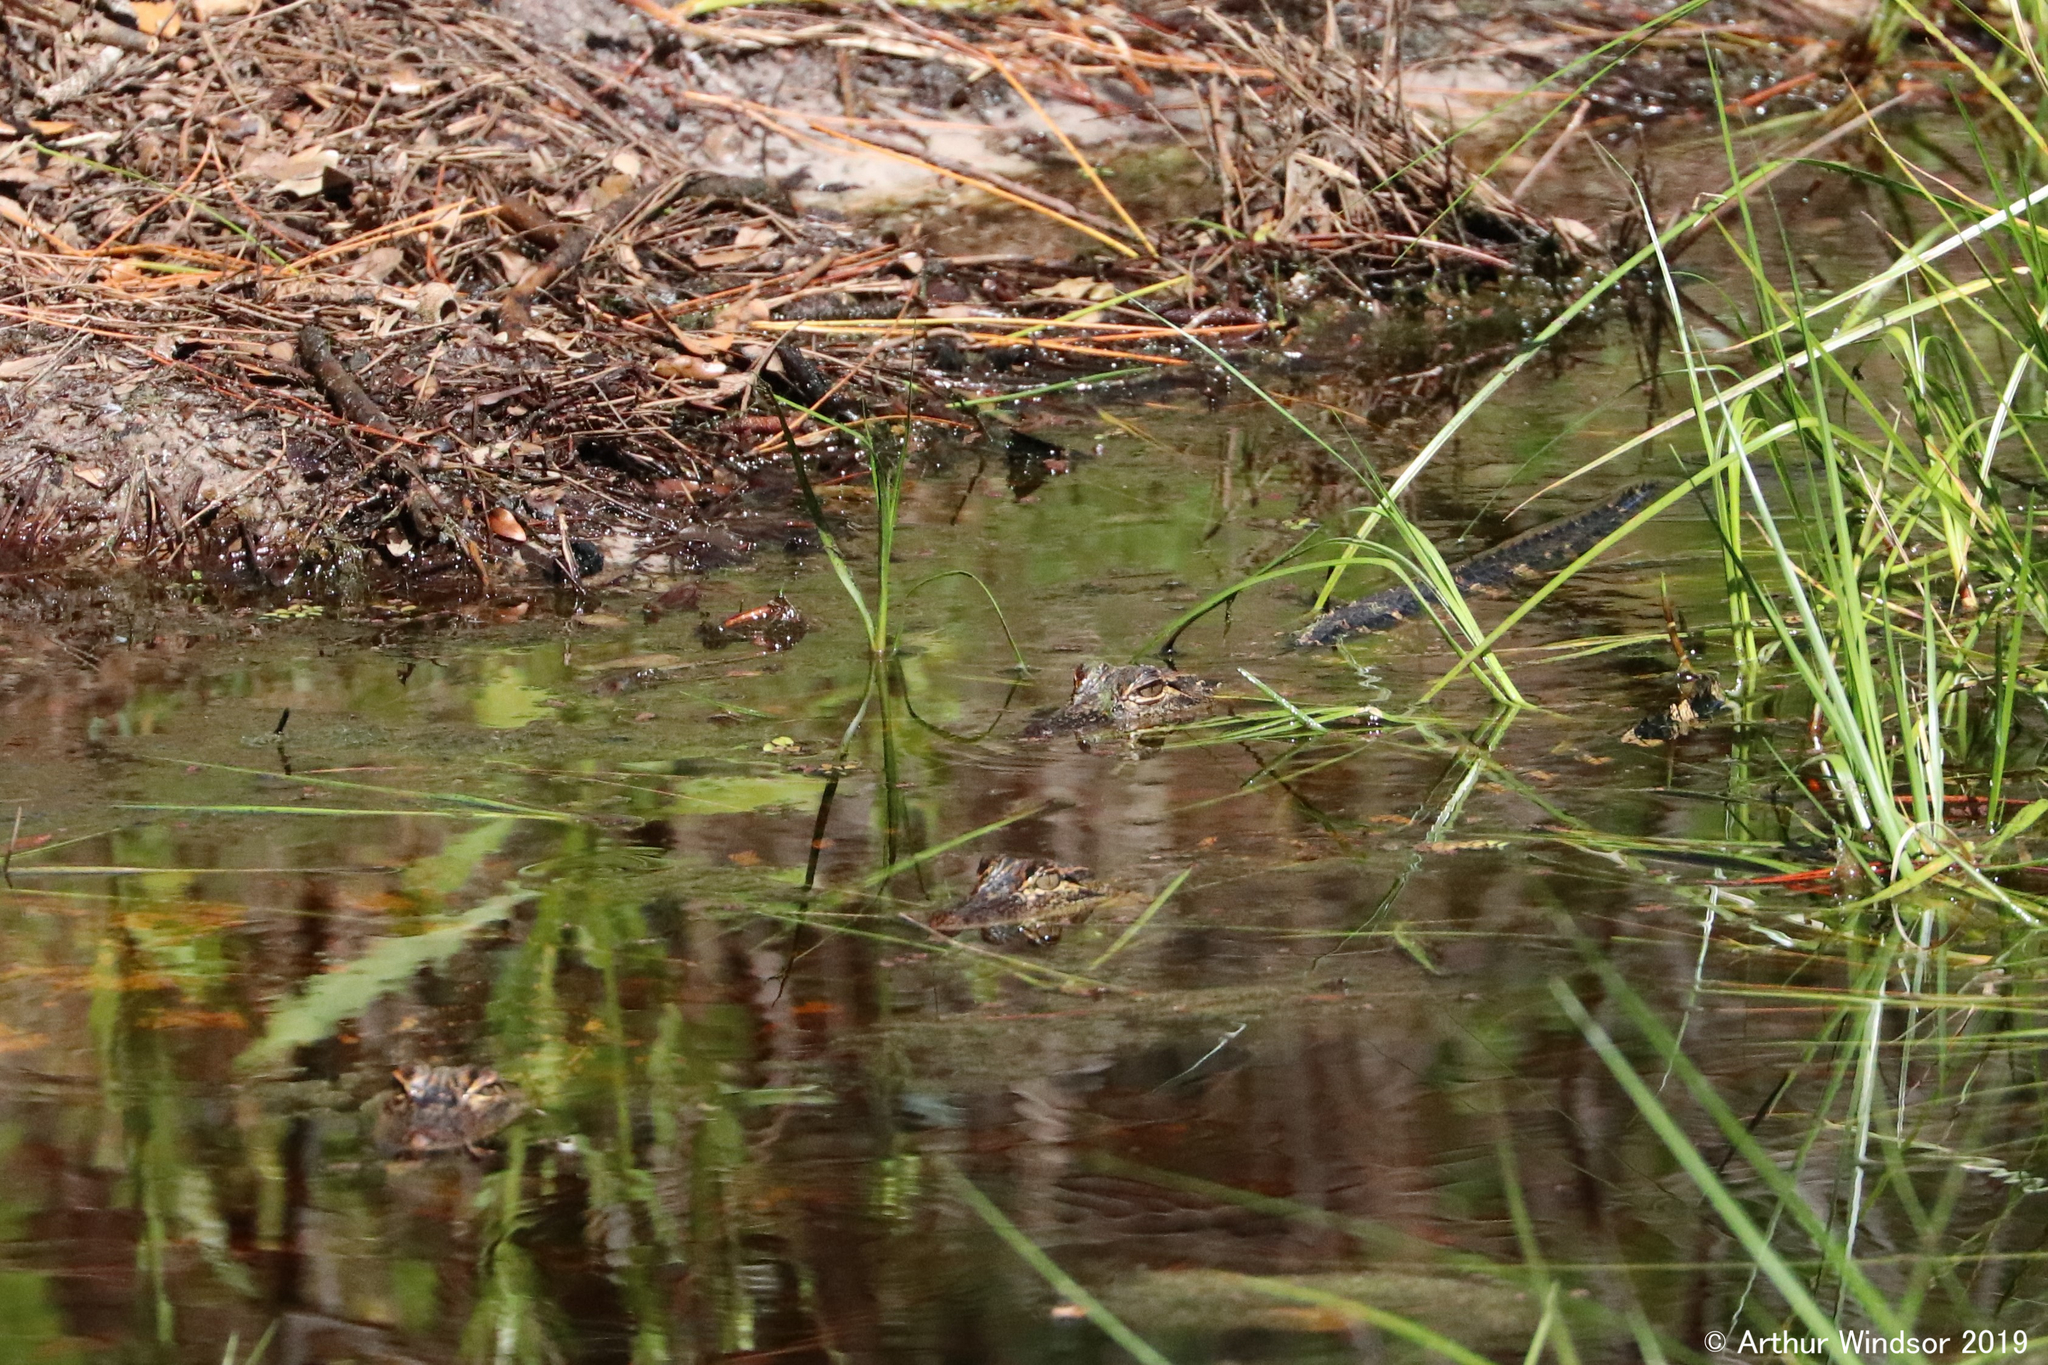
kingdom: Animalia
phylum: Chordata
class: Crocodylia
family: Alligatoridae
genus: Alligator
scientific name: Alligator mississippiensis
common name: American alligator
